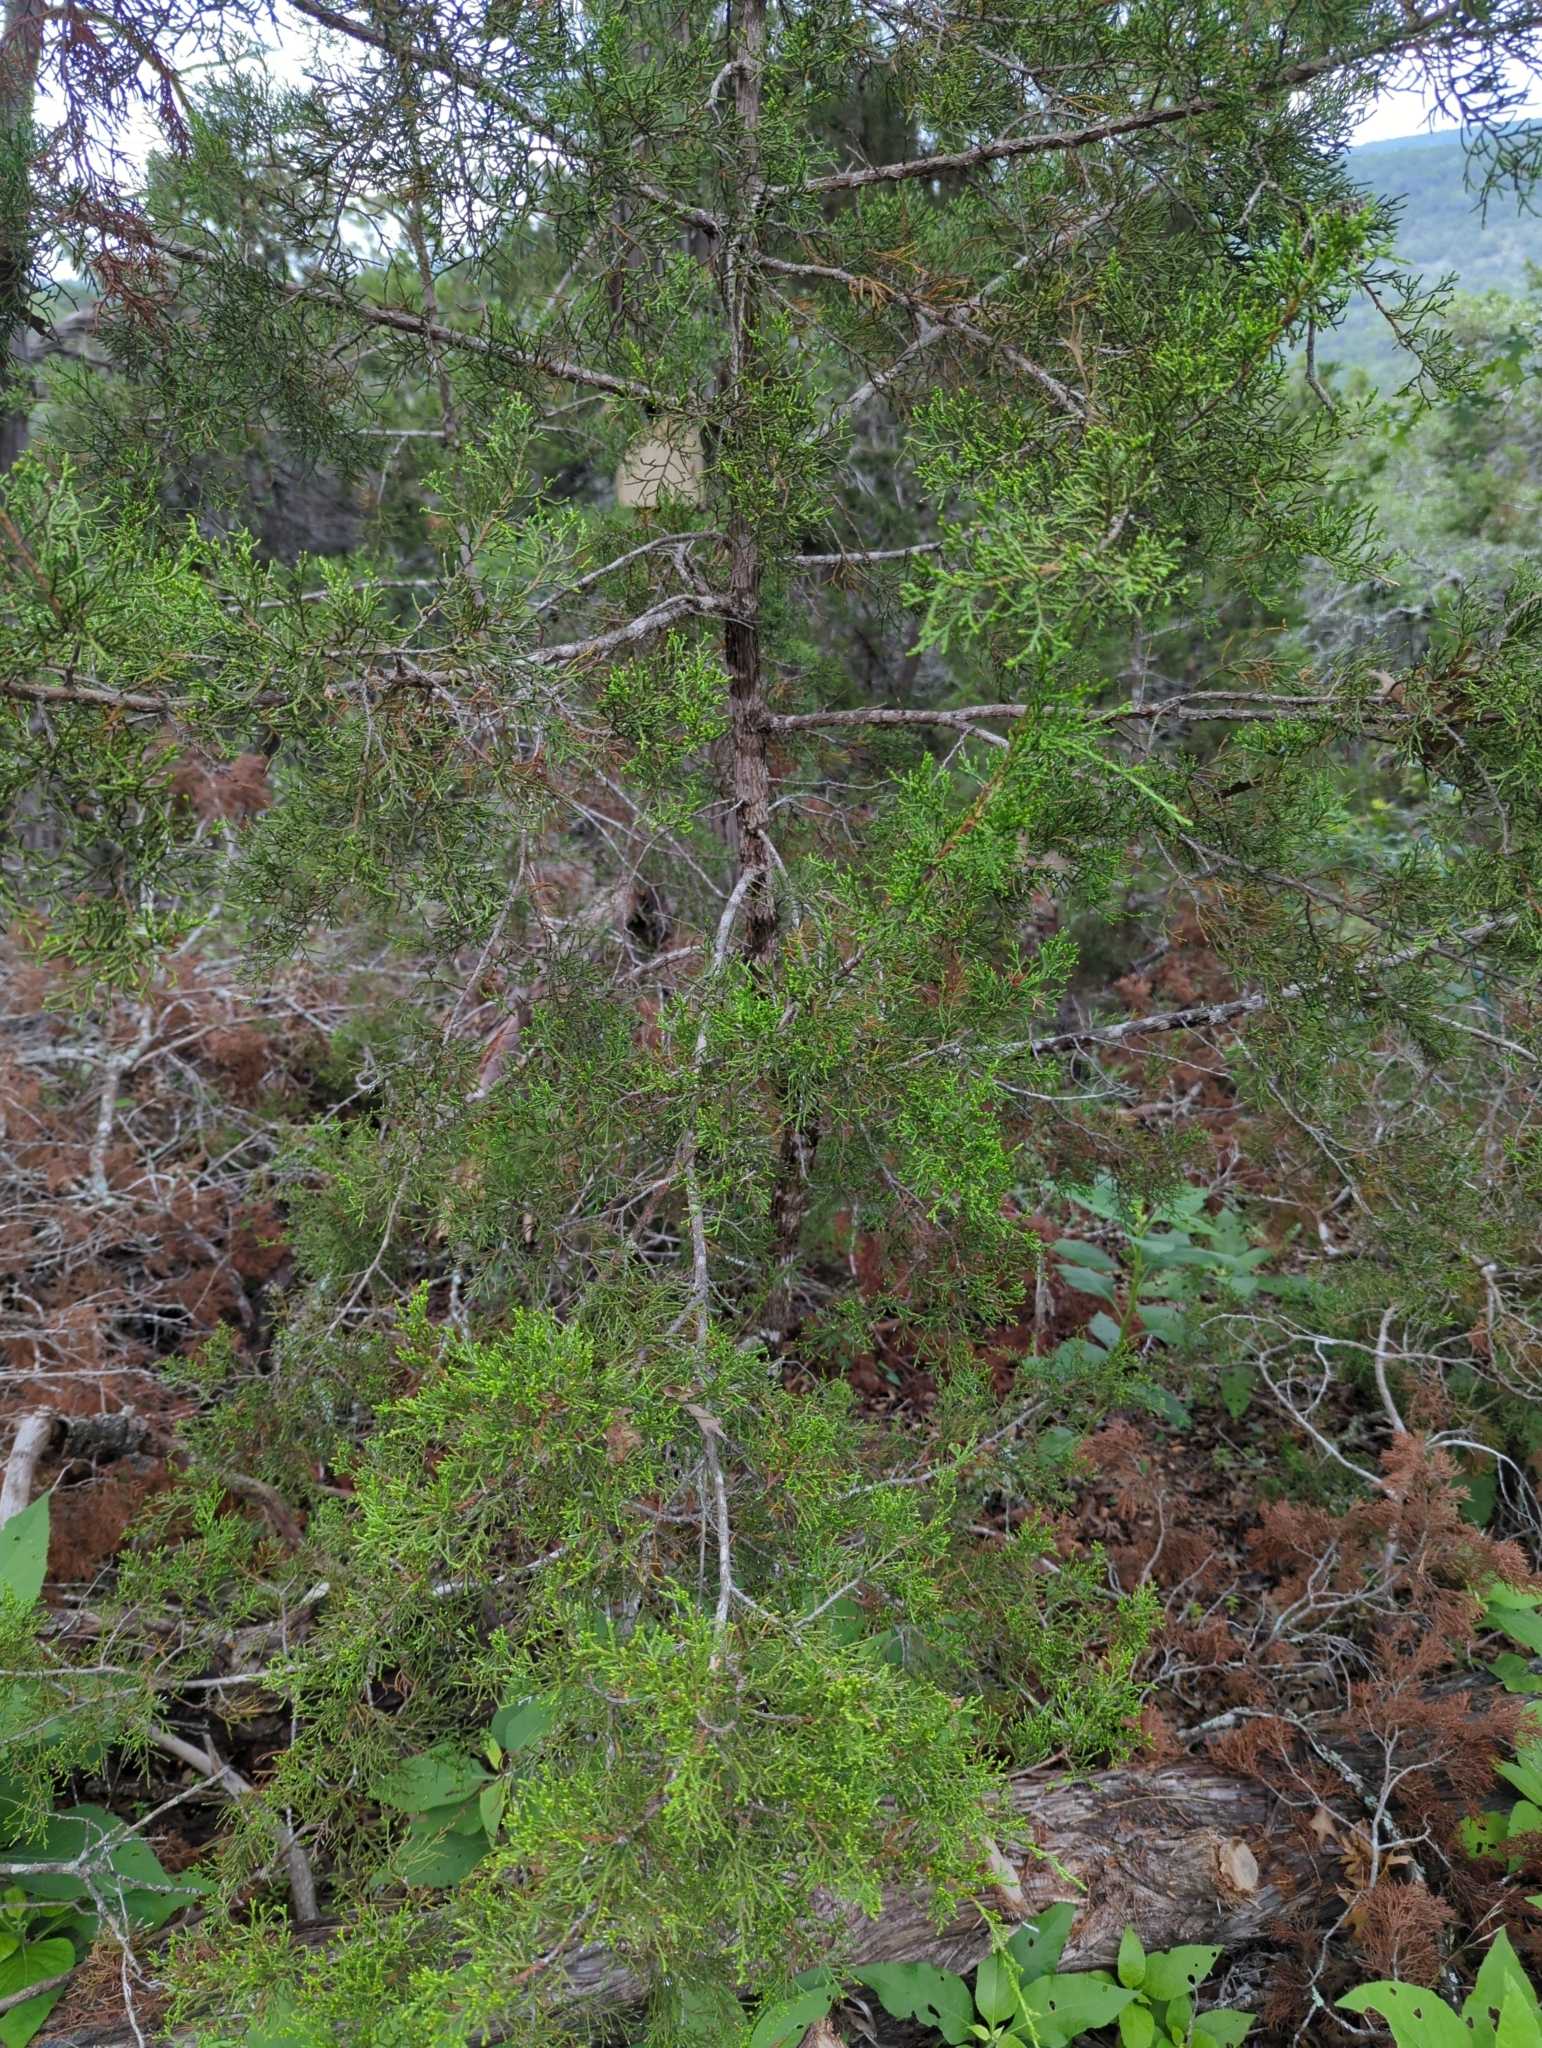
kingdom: Plantae
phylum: Tracheophyta
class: Pinopsida
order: Pinales
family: Cupressaceae
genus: Juniperus
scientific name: Juniperus ashei
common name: Mexican juniper
